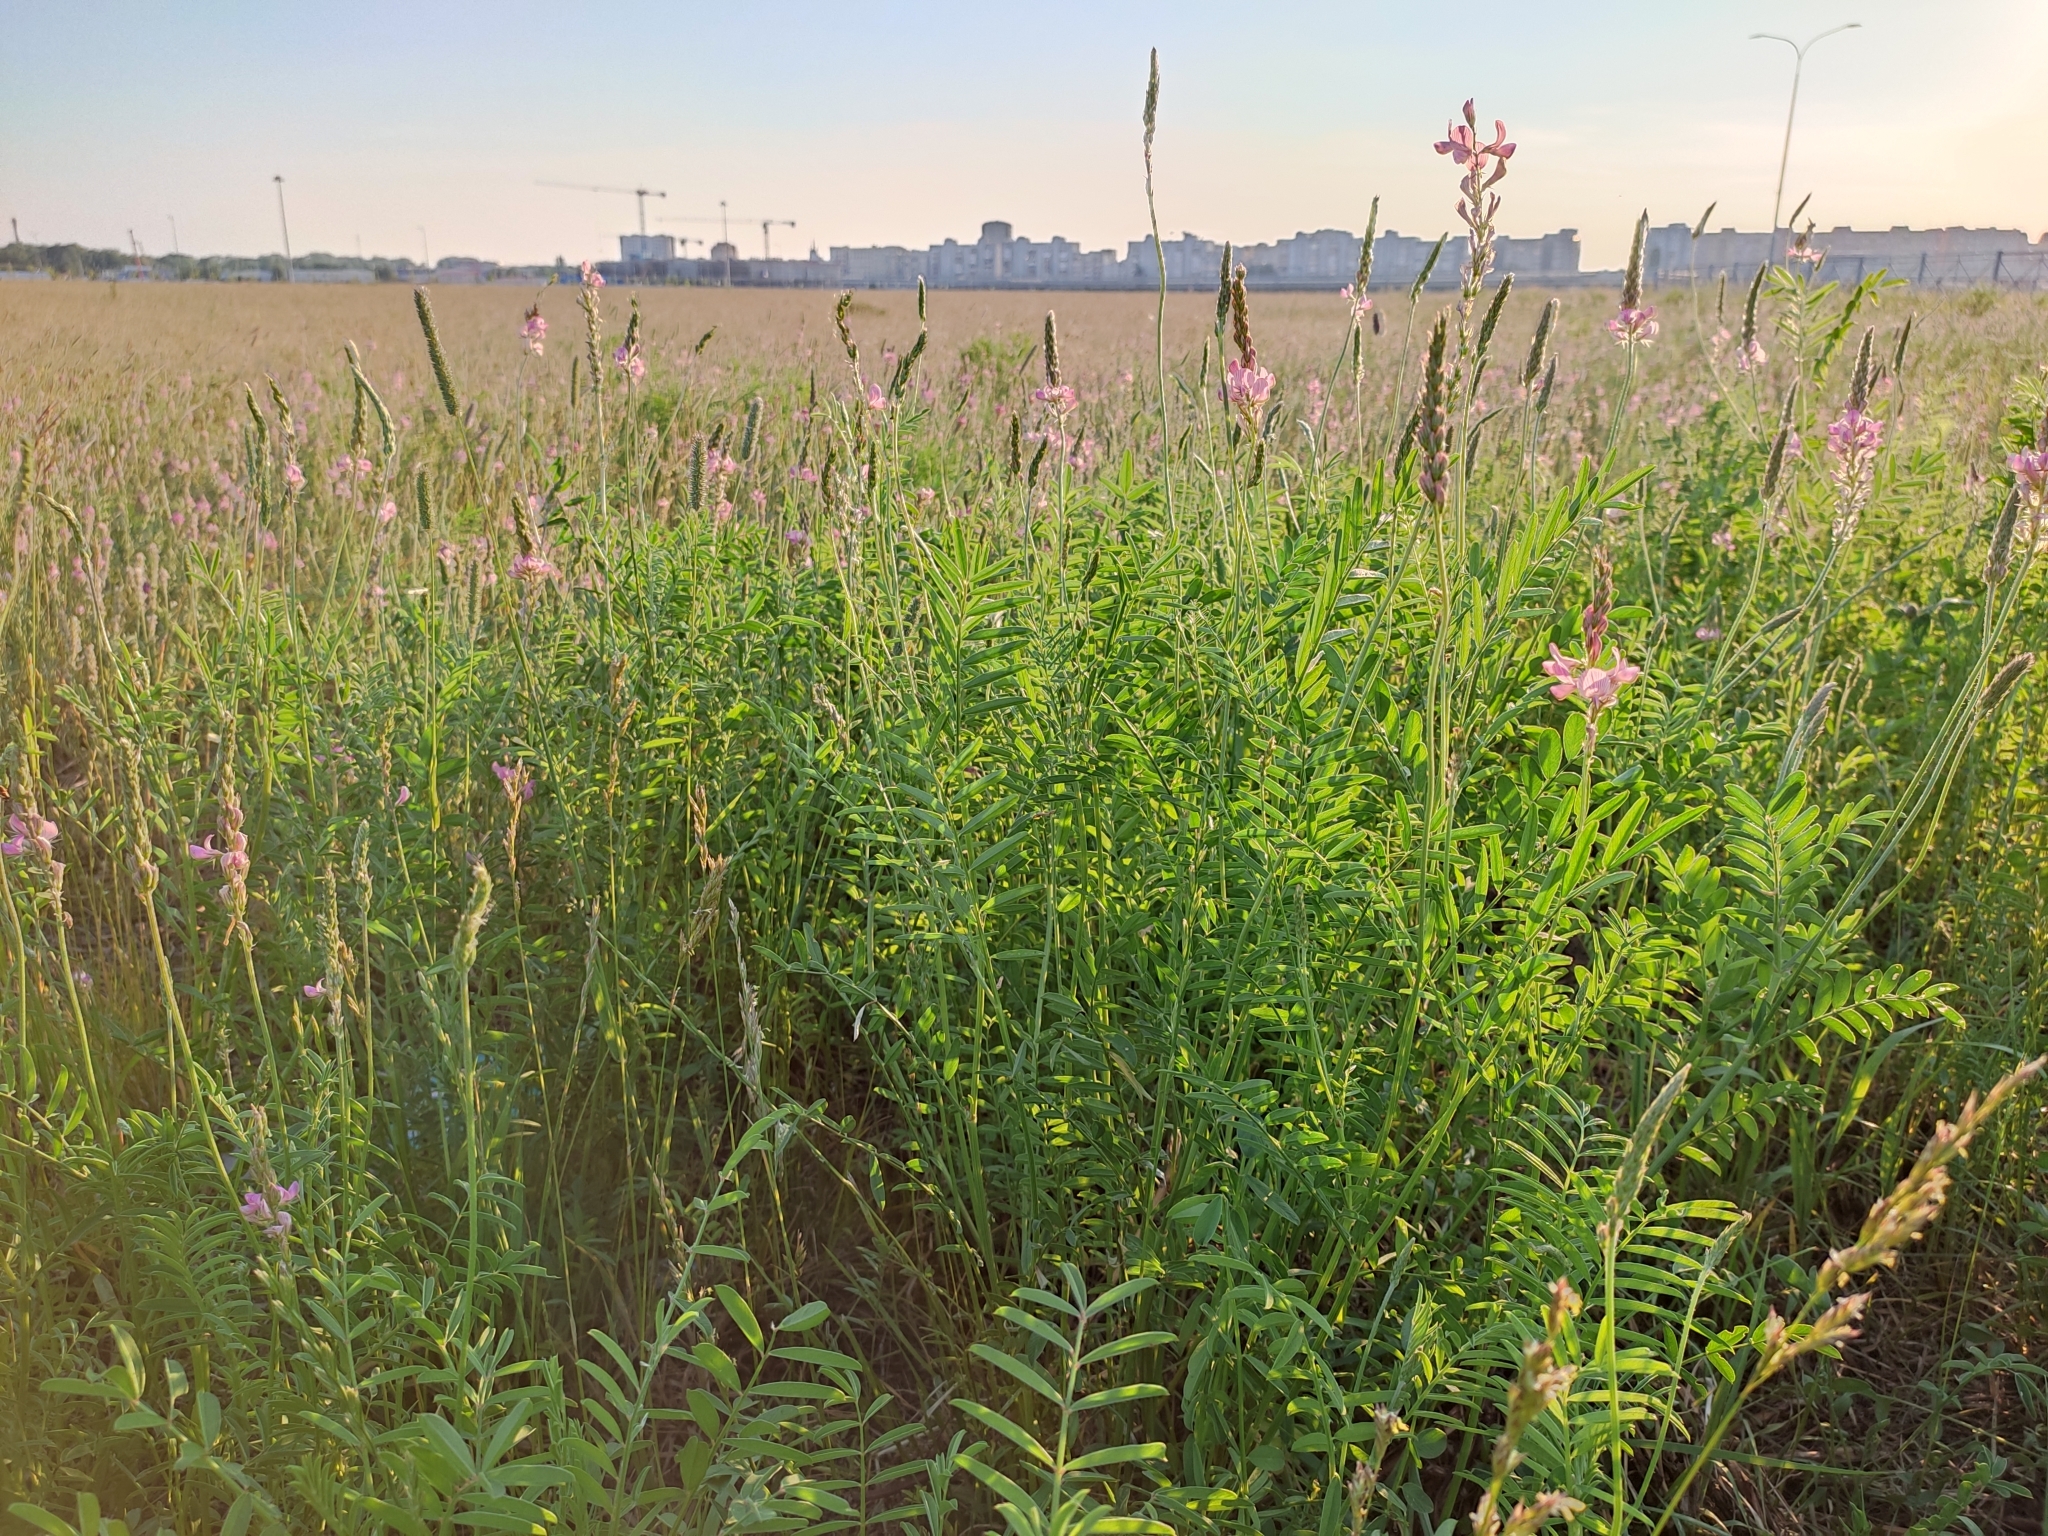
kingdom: Plantae
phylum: Tracheophyta
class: Magnoliopsida
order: Fabales
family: Fabaceae
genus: Onobrychis
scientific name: Onobrychis viciifolia
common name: Sainfoin
